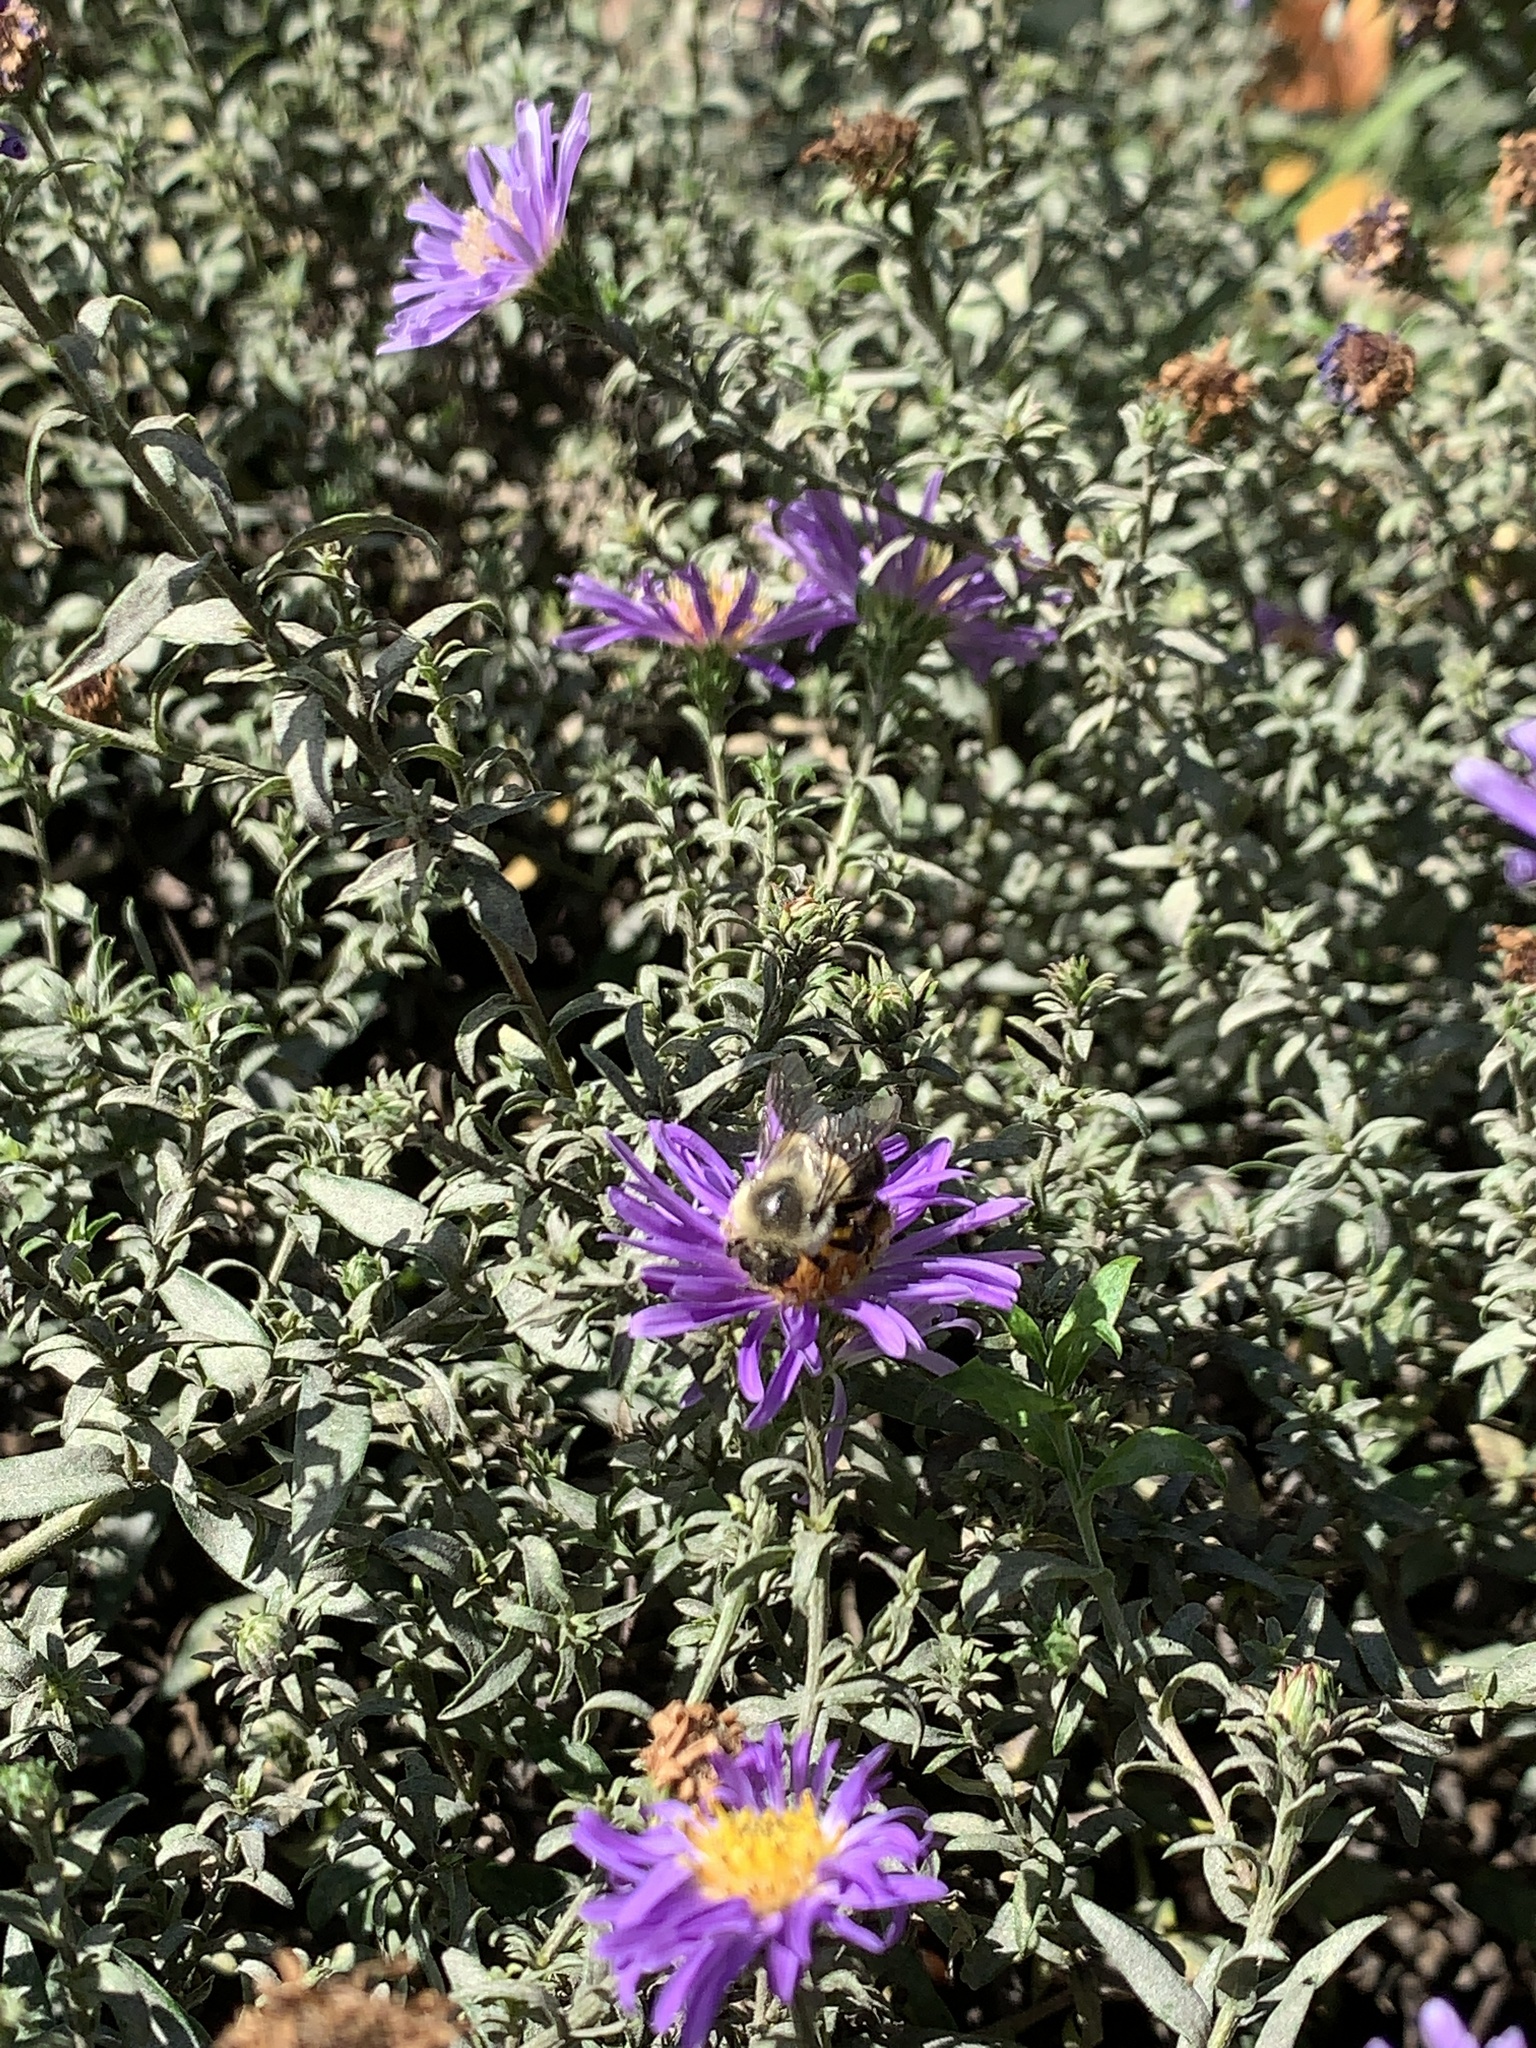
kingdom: Animalia
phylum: Arthropoda
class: Insecta
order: Hymenoptera
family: Apidae
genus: Bombus
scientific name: Bombus impatiens
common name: Common eastern bumble bee
